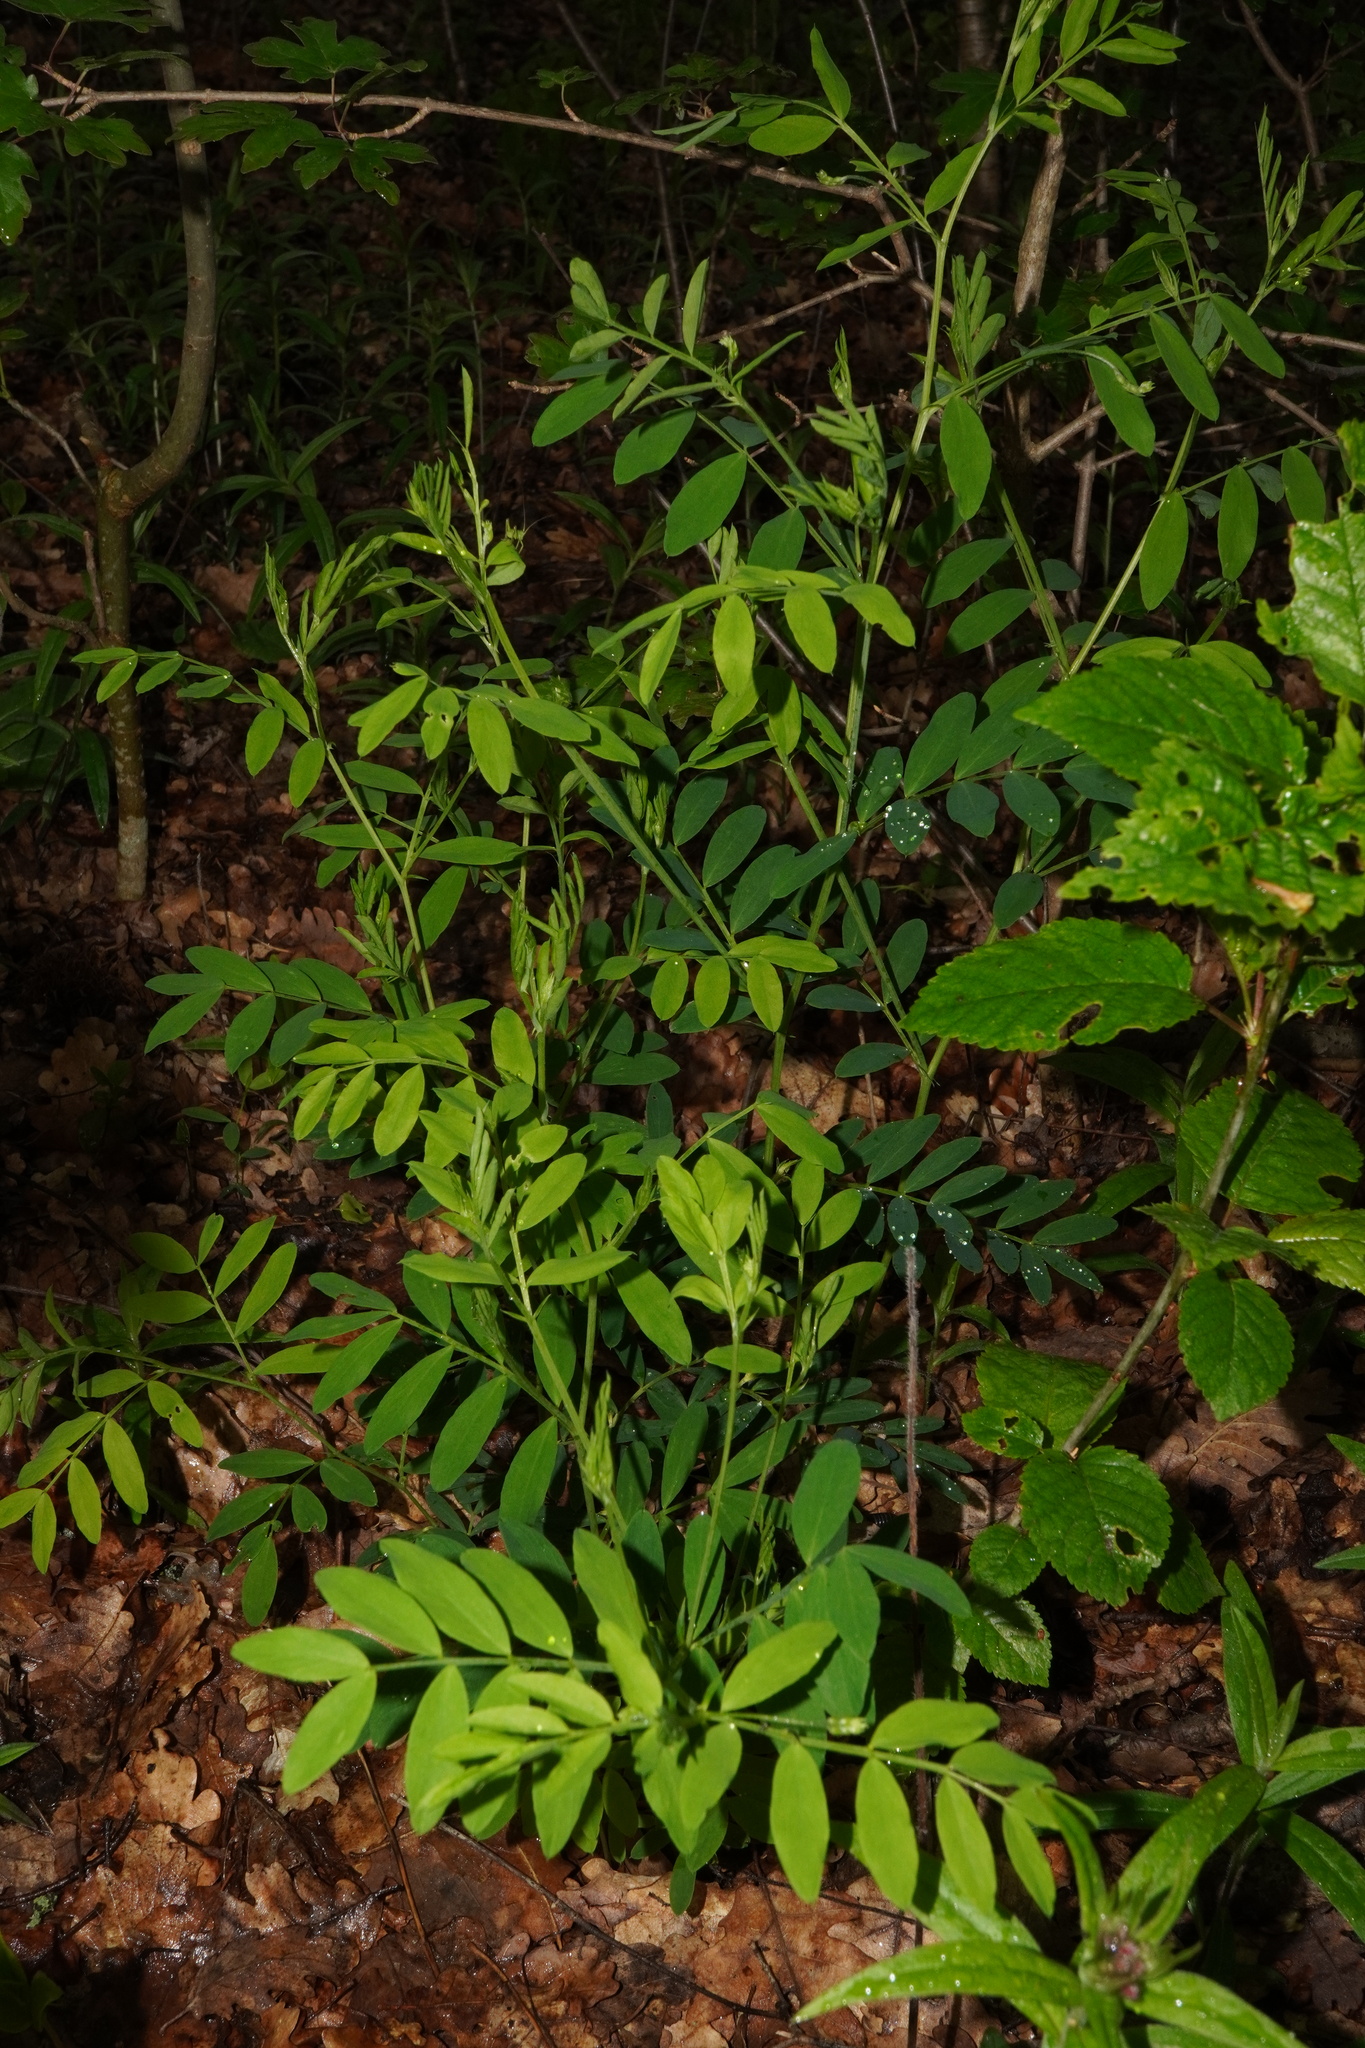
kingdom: Plantae
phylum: Tracheophyta
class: Magnoliopsida
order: Fabales
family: Fabaceae
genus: Lathyrus
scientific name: Lathyrus niger
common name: Black pea
